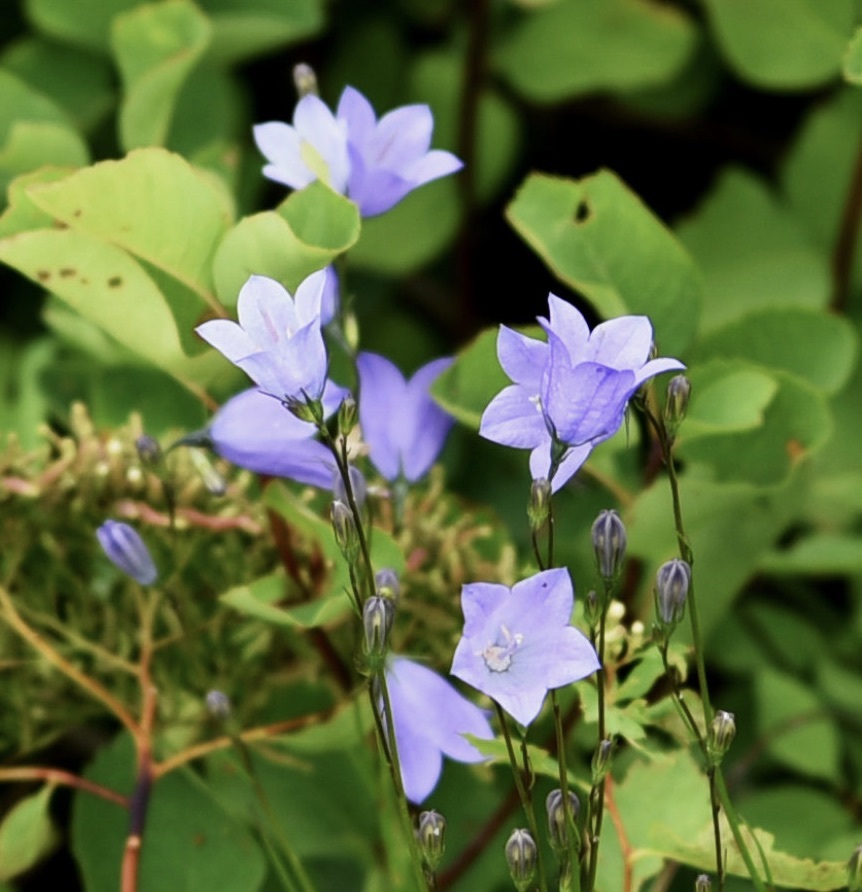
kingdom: Plantae
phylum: Tracheophyta
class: Magnoliopsida
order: Asterales
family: Campanulaceae
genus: Campanula
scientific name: Campanula petiolata
